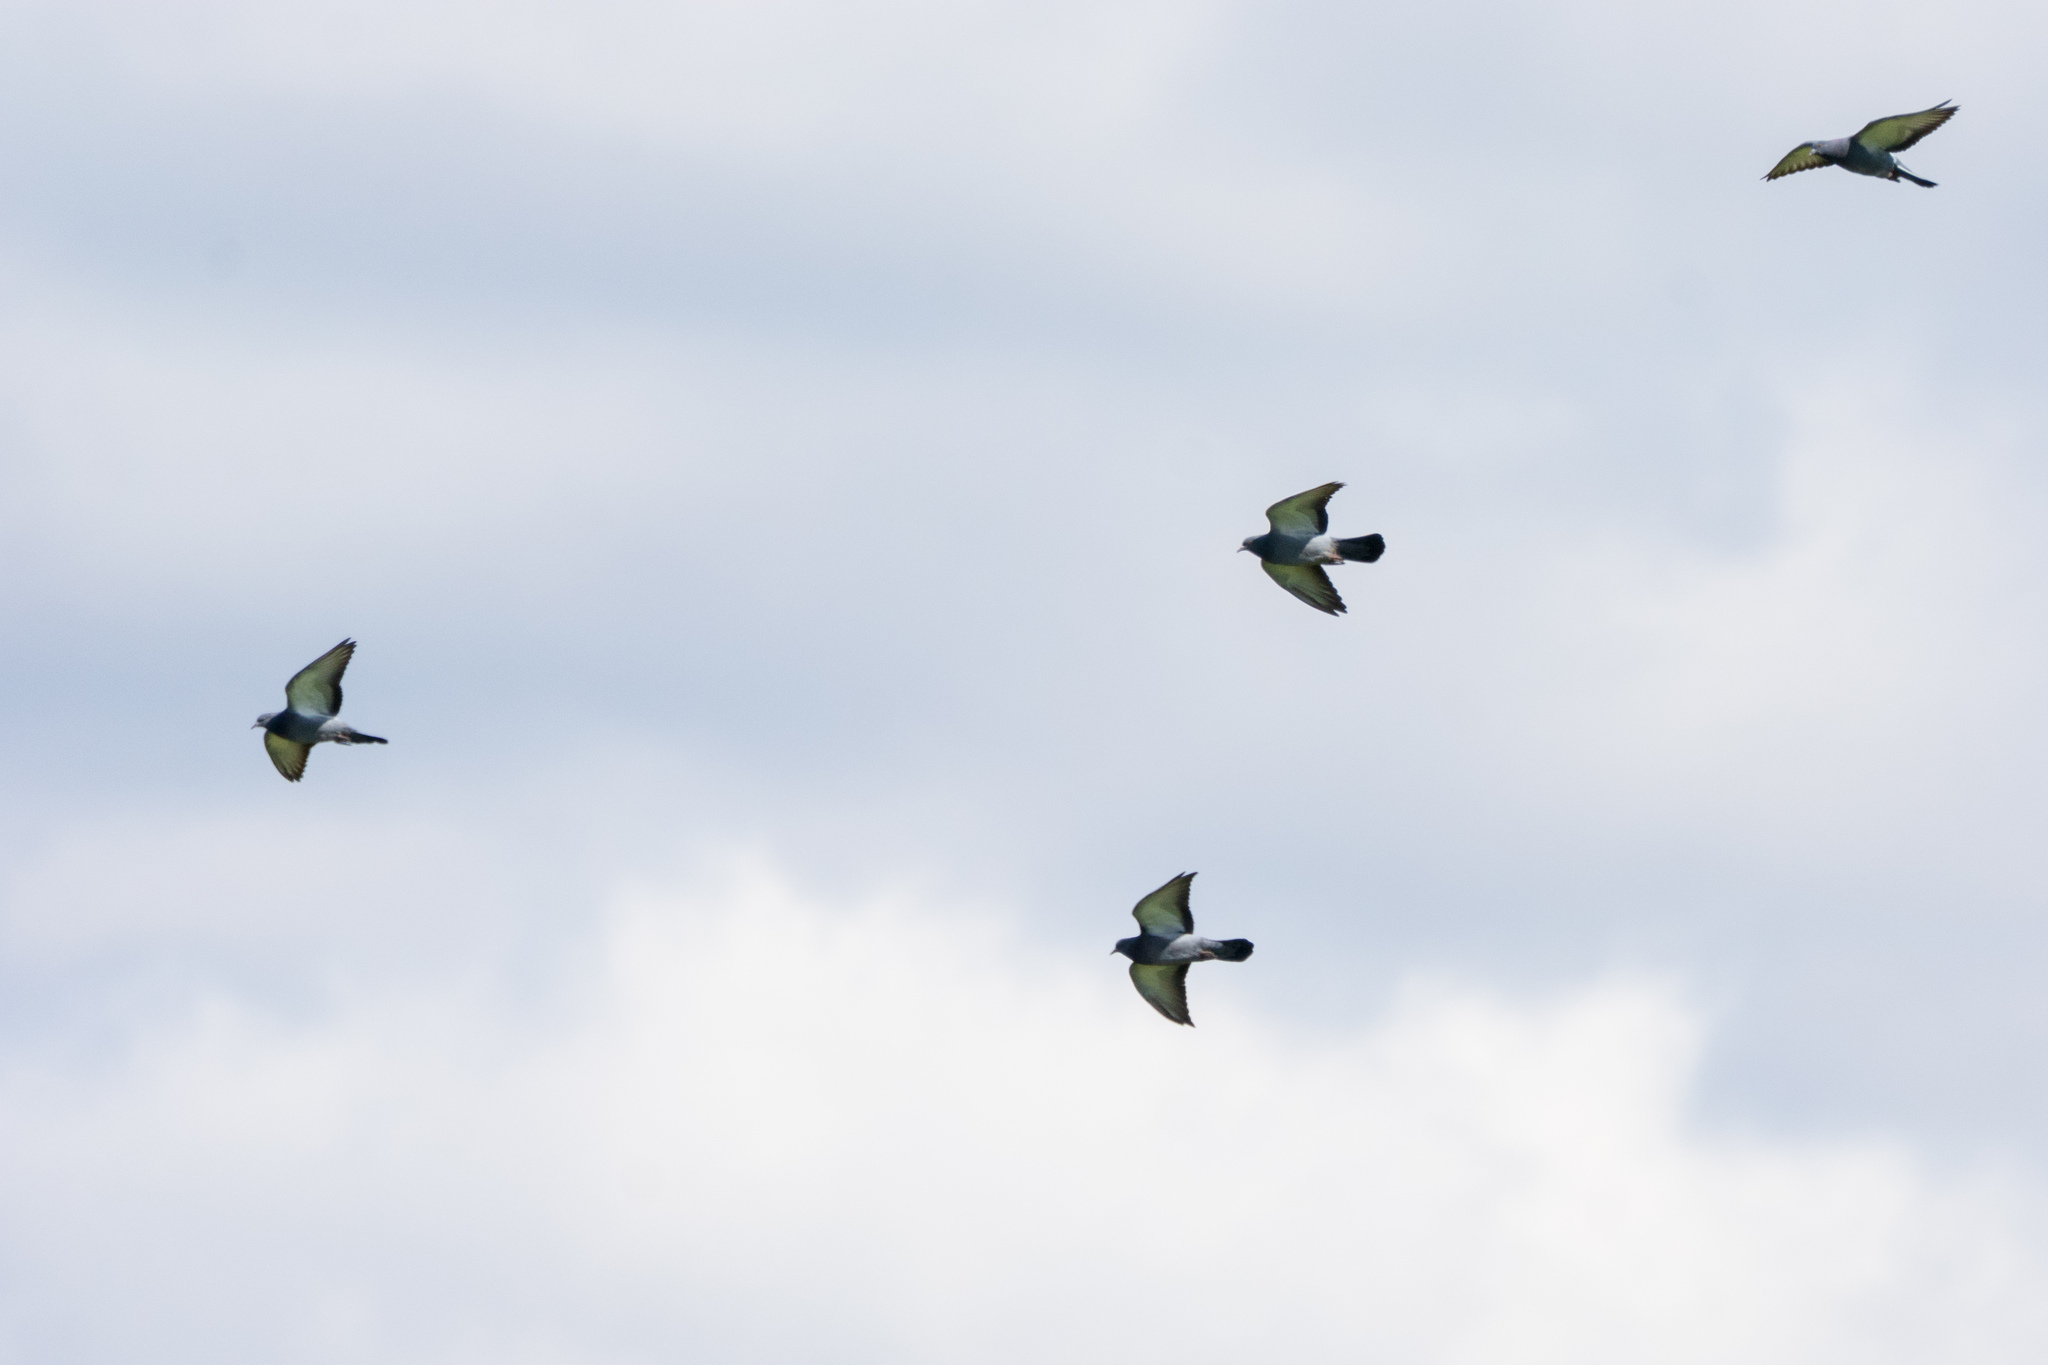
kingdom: Animalia
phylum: Chordata
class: Aves
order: Columbiformes
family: Columbidae
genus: Columba
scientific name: Columba livia
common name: Rock pigeon
